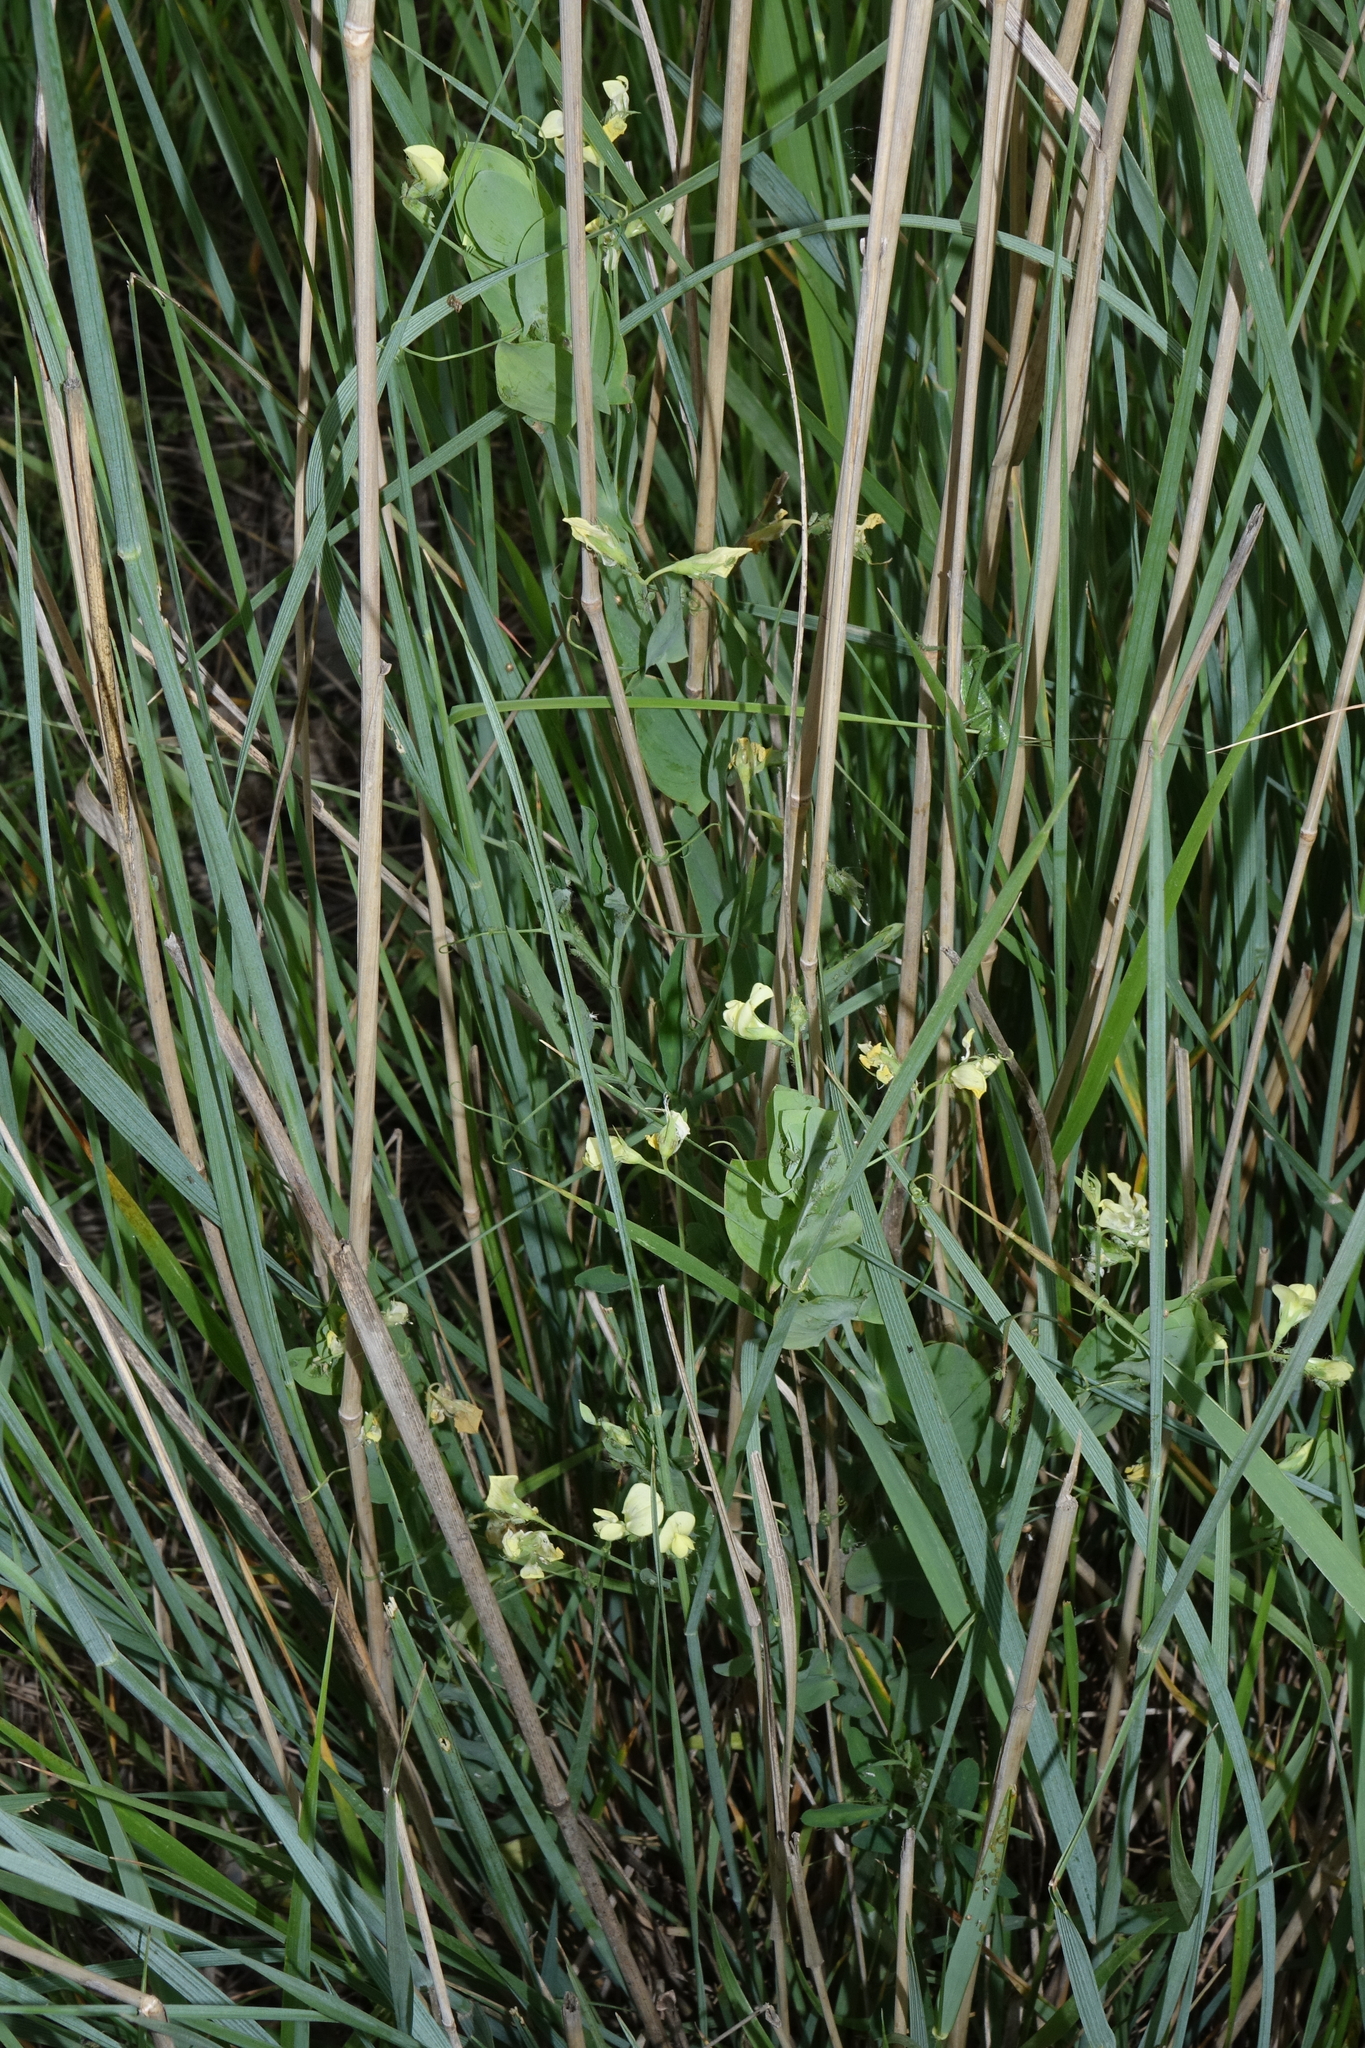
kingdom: Plantae
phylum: Tracheophyta
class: Magnoliopsida
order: Fabales
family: Fabaceae
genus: Lathyrus
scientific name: Lathyrus aphaca
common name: Yellow vetchling
